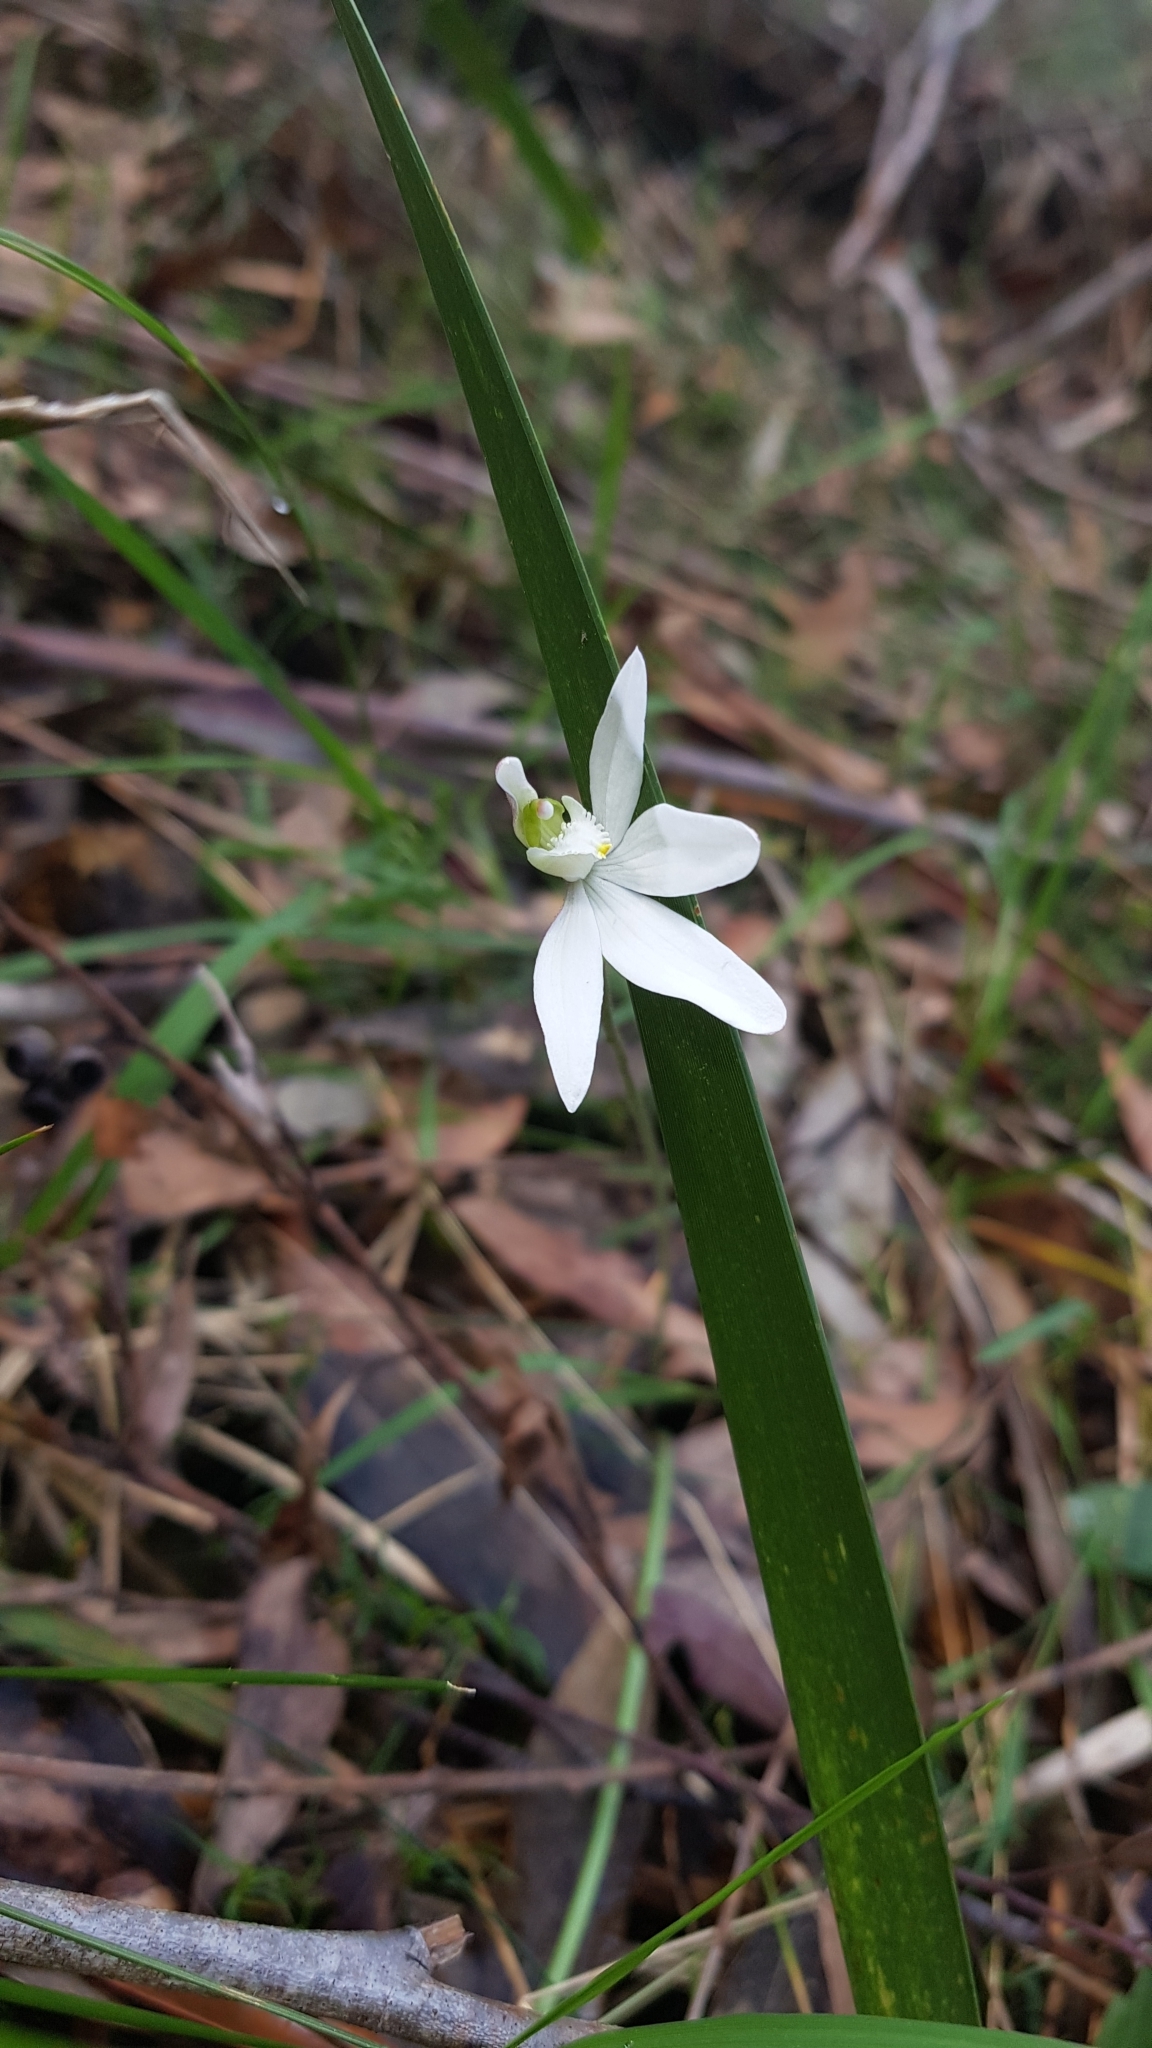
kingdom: Plantae
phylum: Tracheophyta
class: Liliopsida
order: Asparagales
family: Orchidaceae
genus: Caladenia
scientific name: Caladenia catenata
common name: White caladenia
